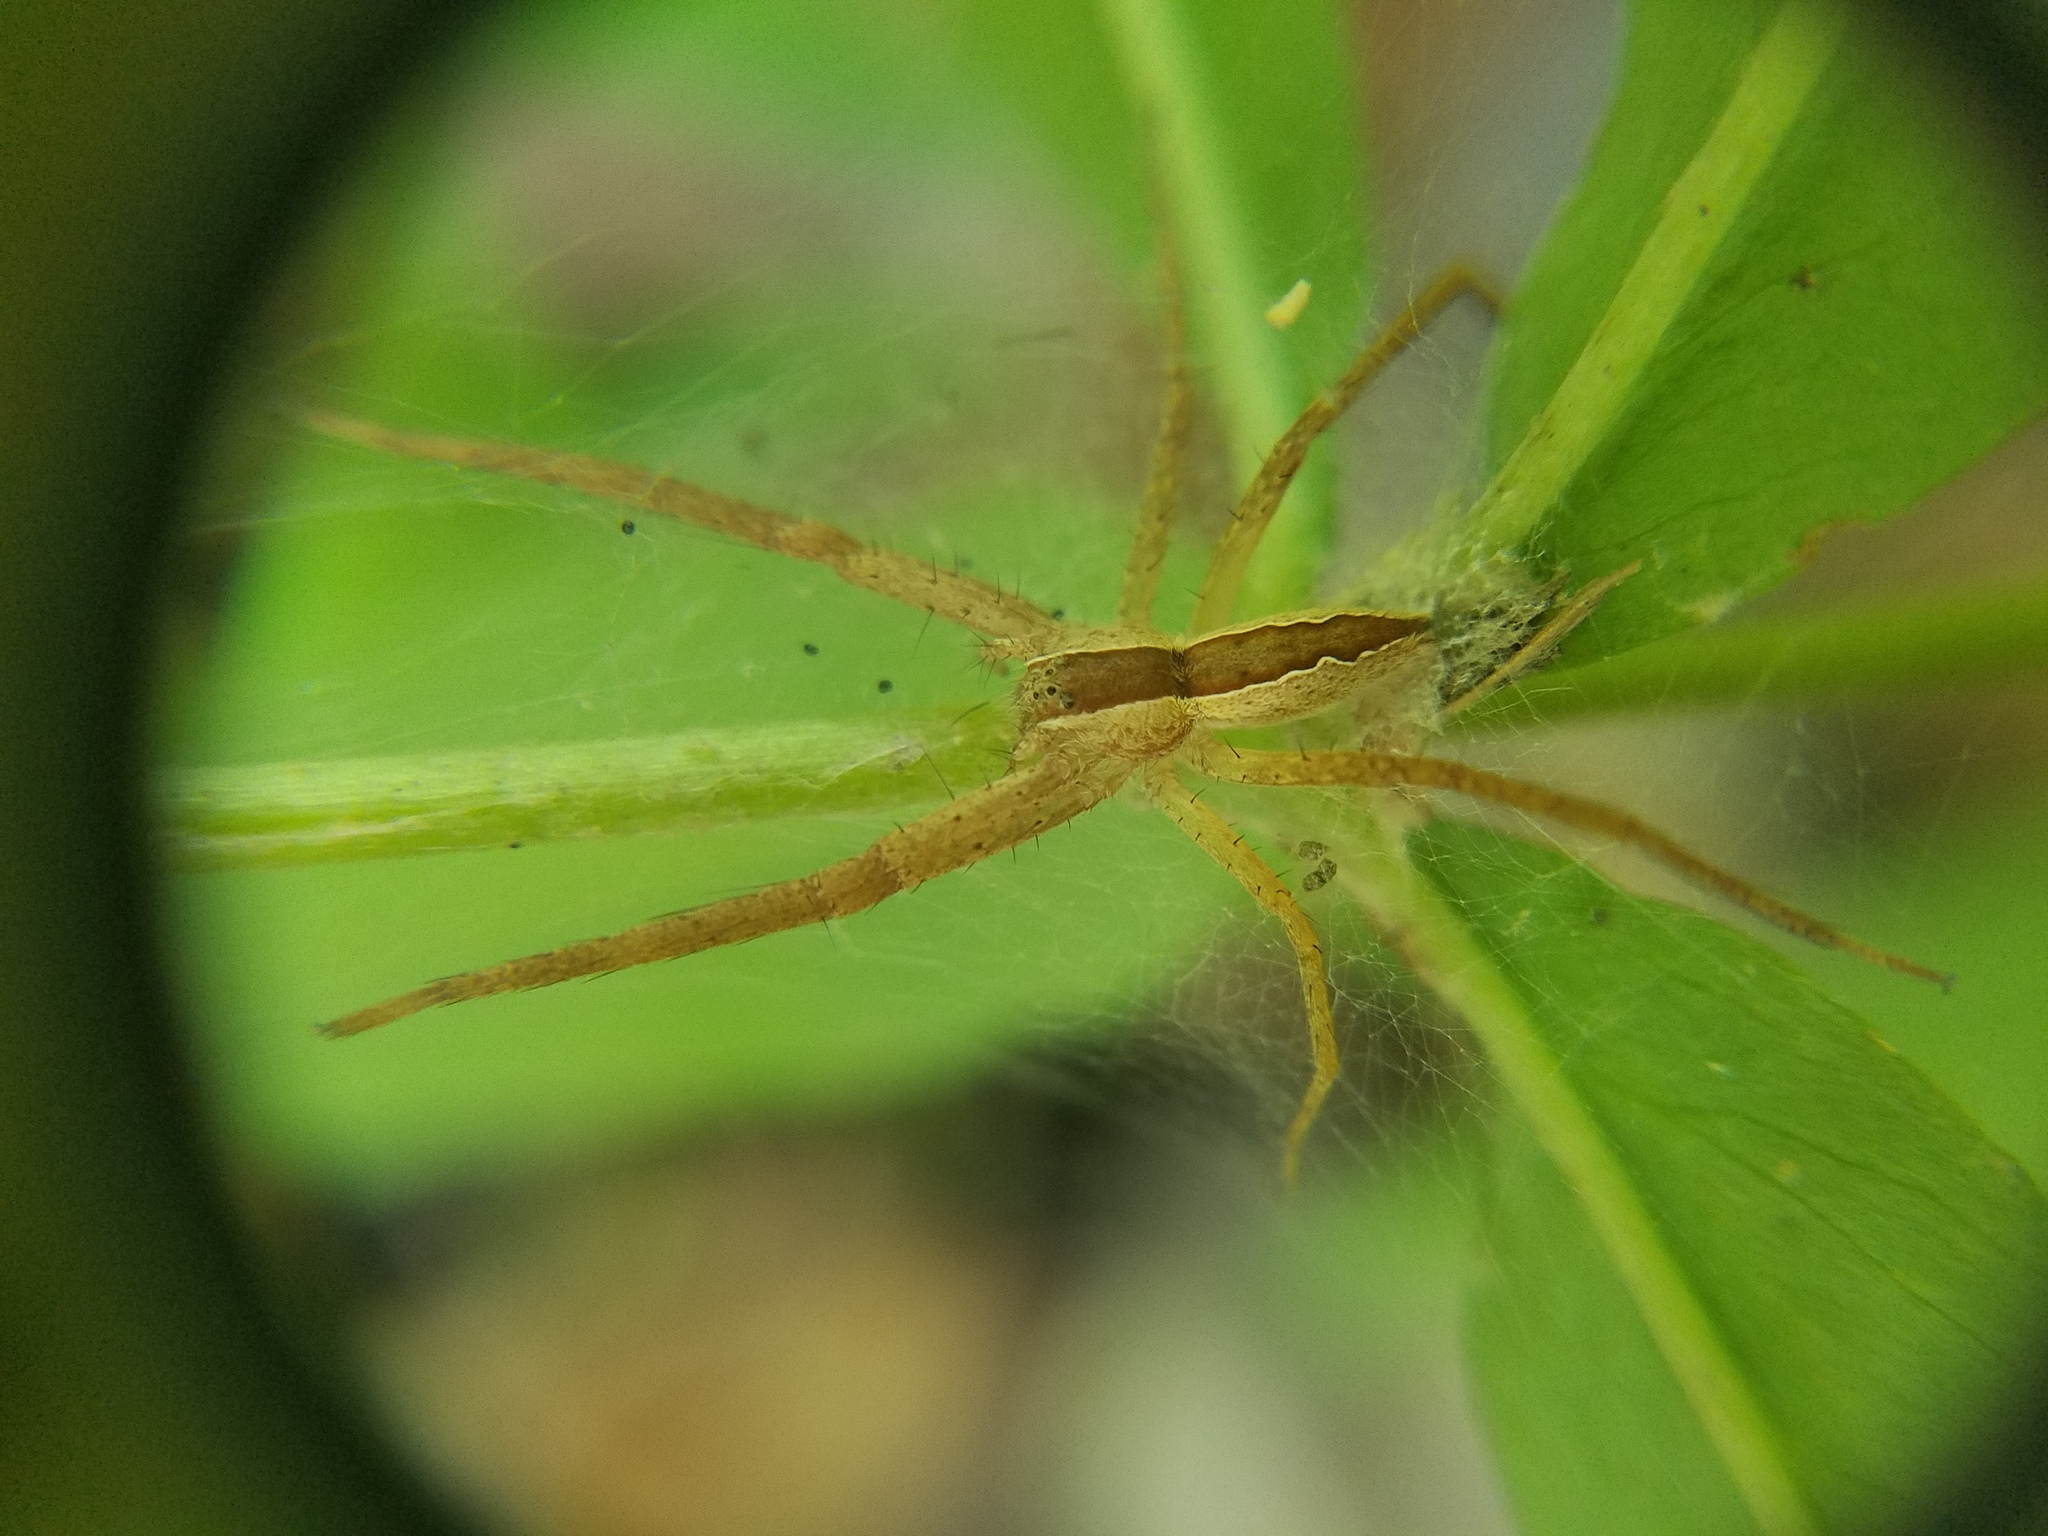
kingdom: Animalia
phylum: Arthropoda
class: Arachnida
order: Araneae
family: Pisauridae
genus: Pisaurina
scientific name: Pisaurina mira
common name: American nursery web spider
